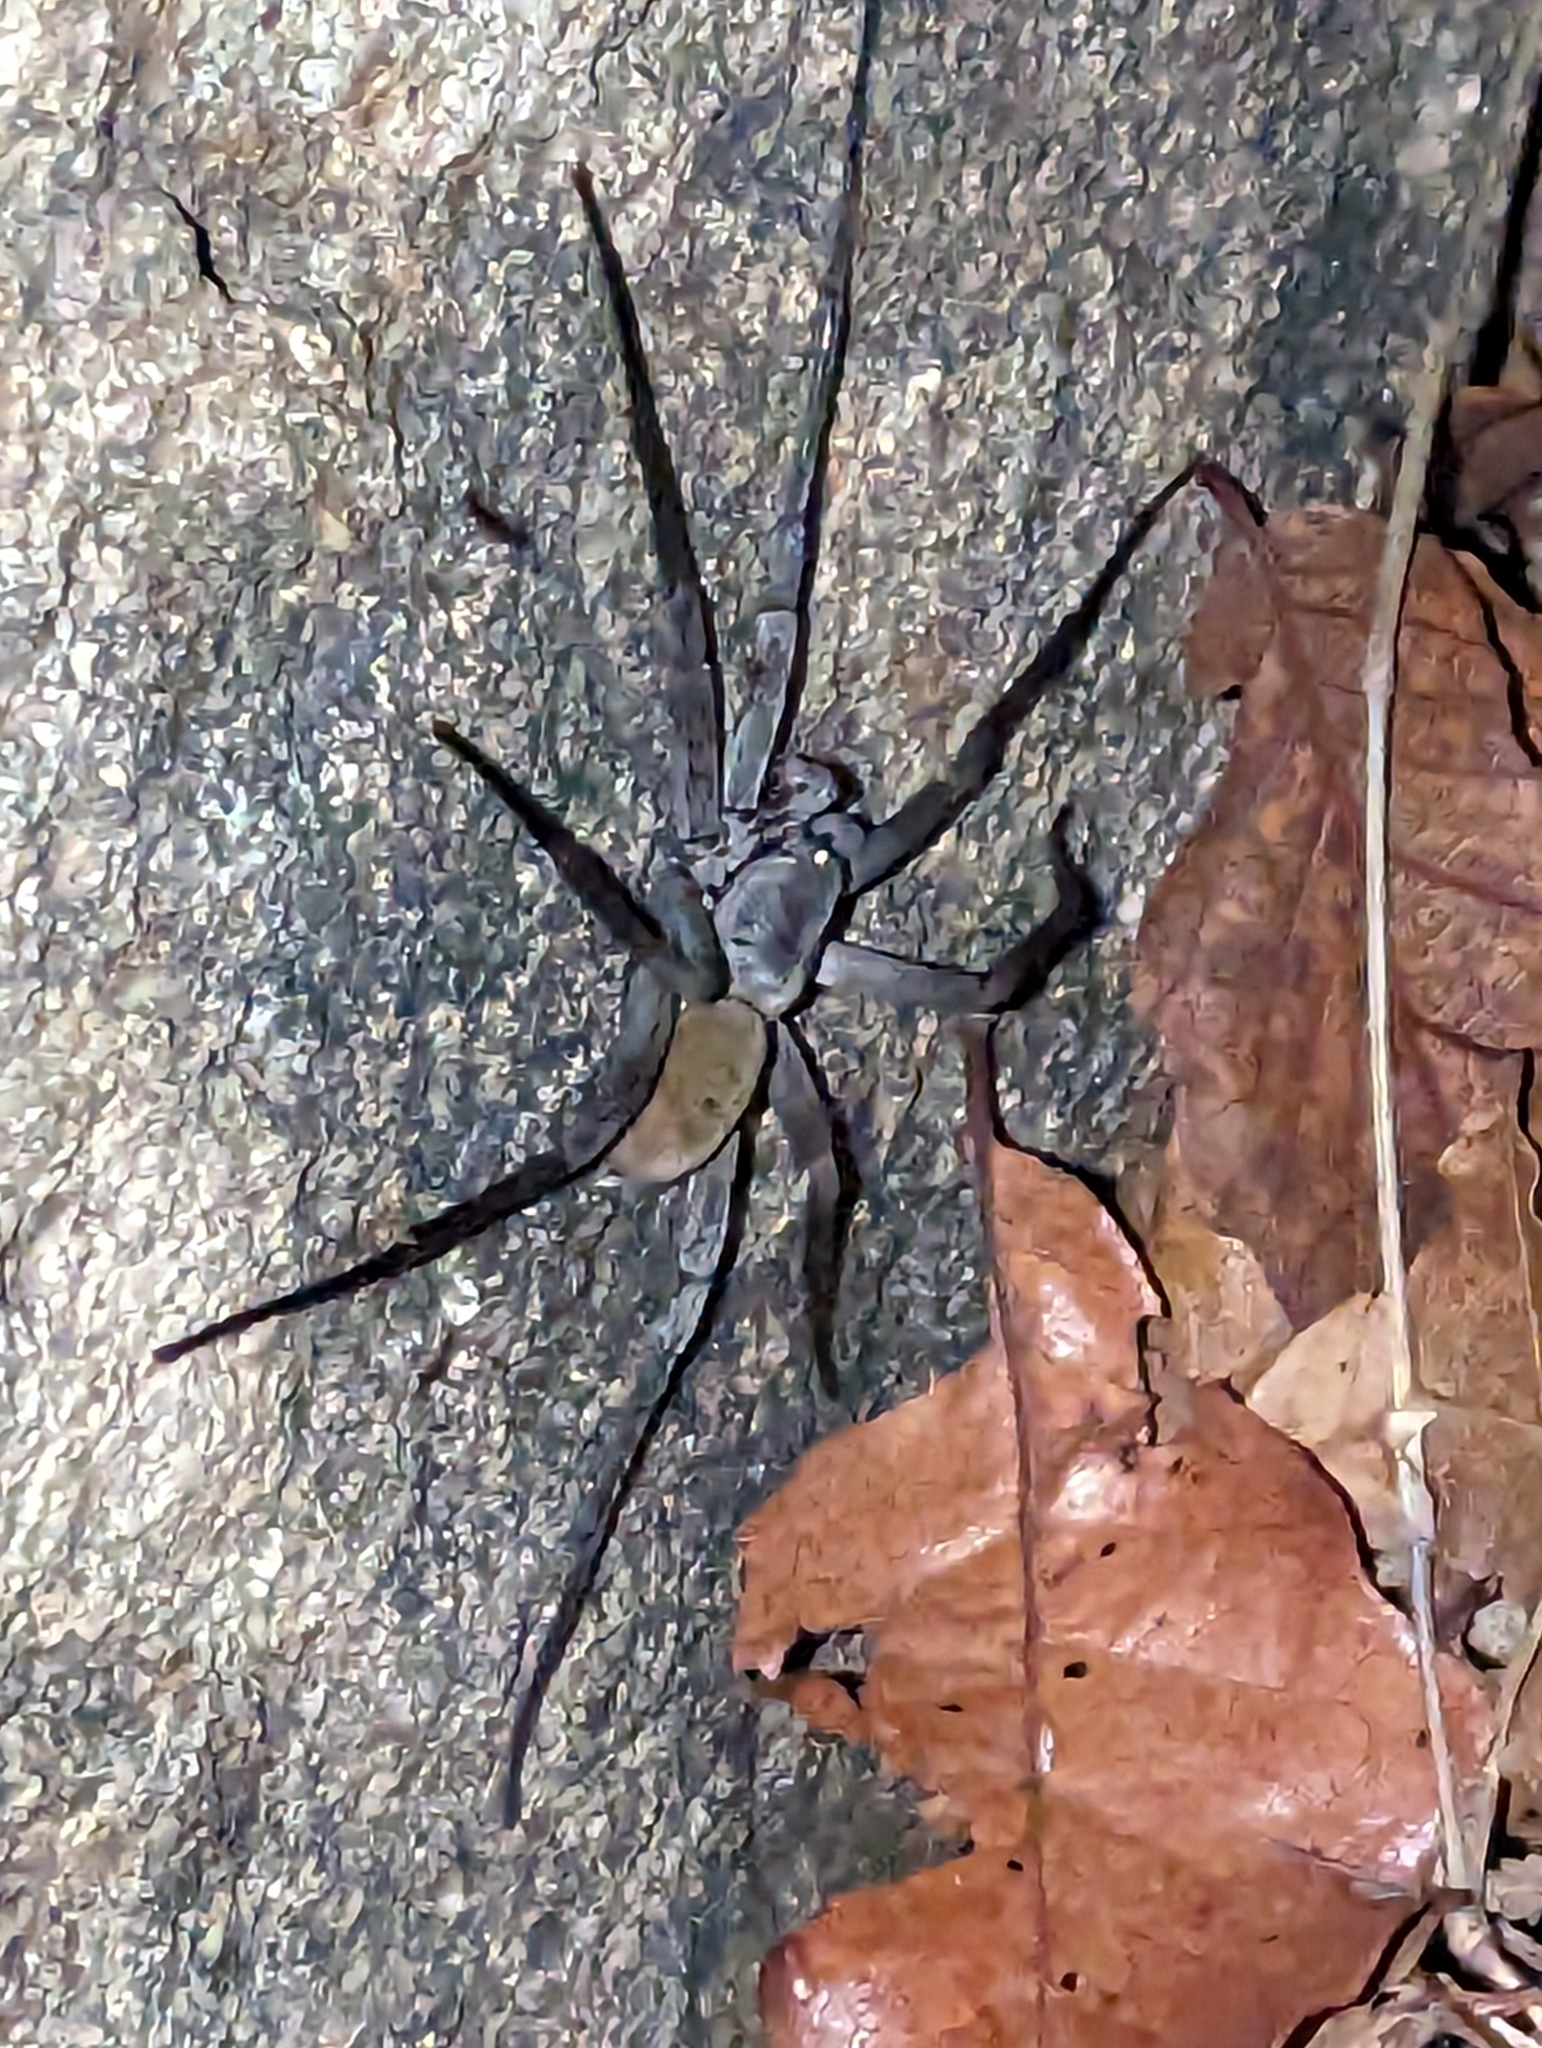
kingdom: Animalia
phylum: Arthropoda
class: Arachnida
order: Araneae
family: Ctenidae
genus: Califorctenus
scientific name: Califorctenus cacachilensis
